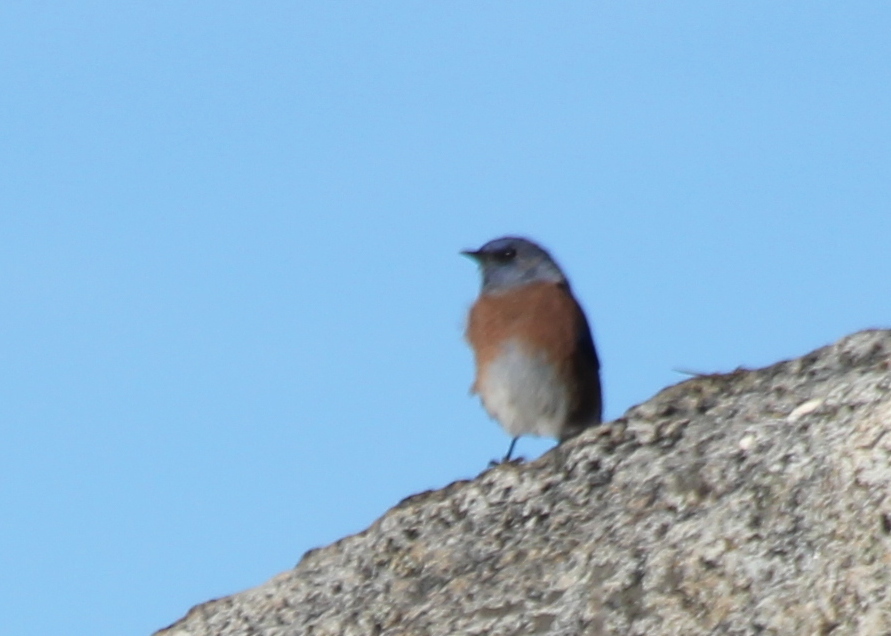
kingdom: Animalia
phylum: Chordata
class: Aves
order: Passeriformes
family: Turdidae
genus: Sialia
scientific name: Sialia mexicana
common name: Western bluebird
